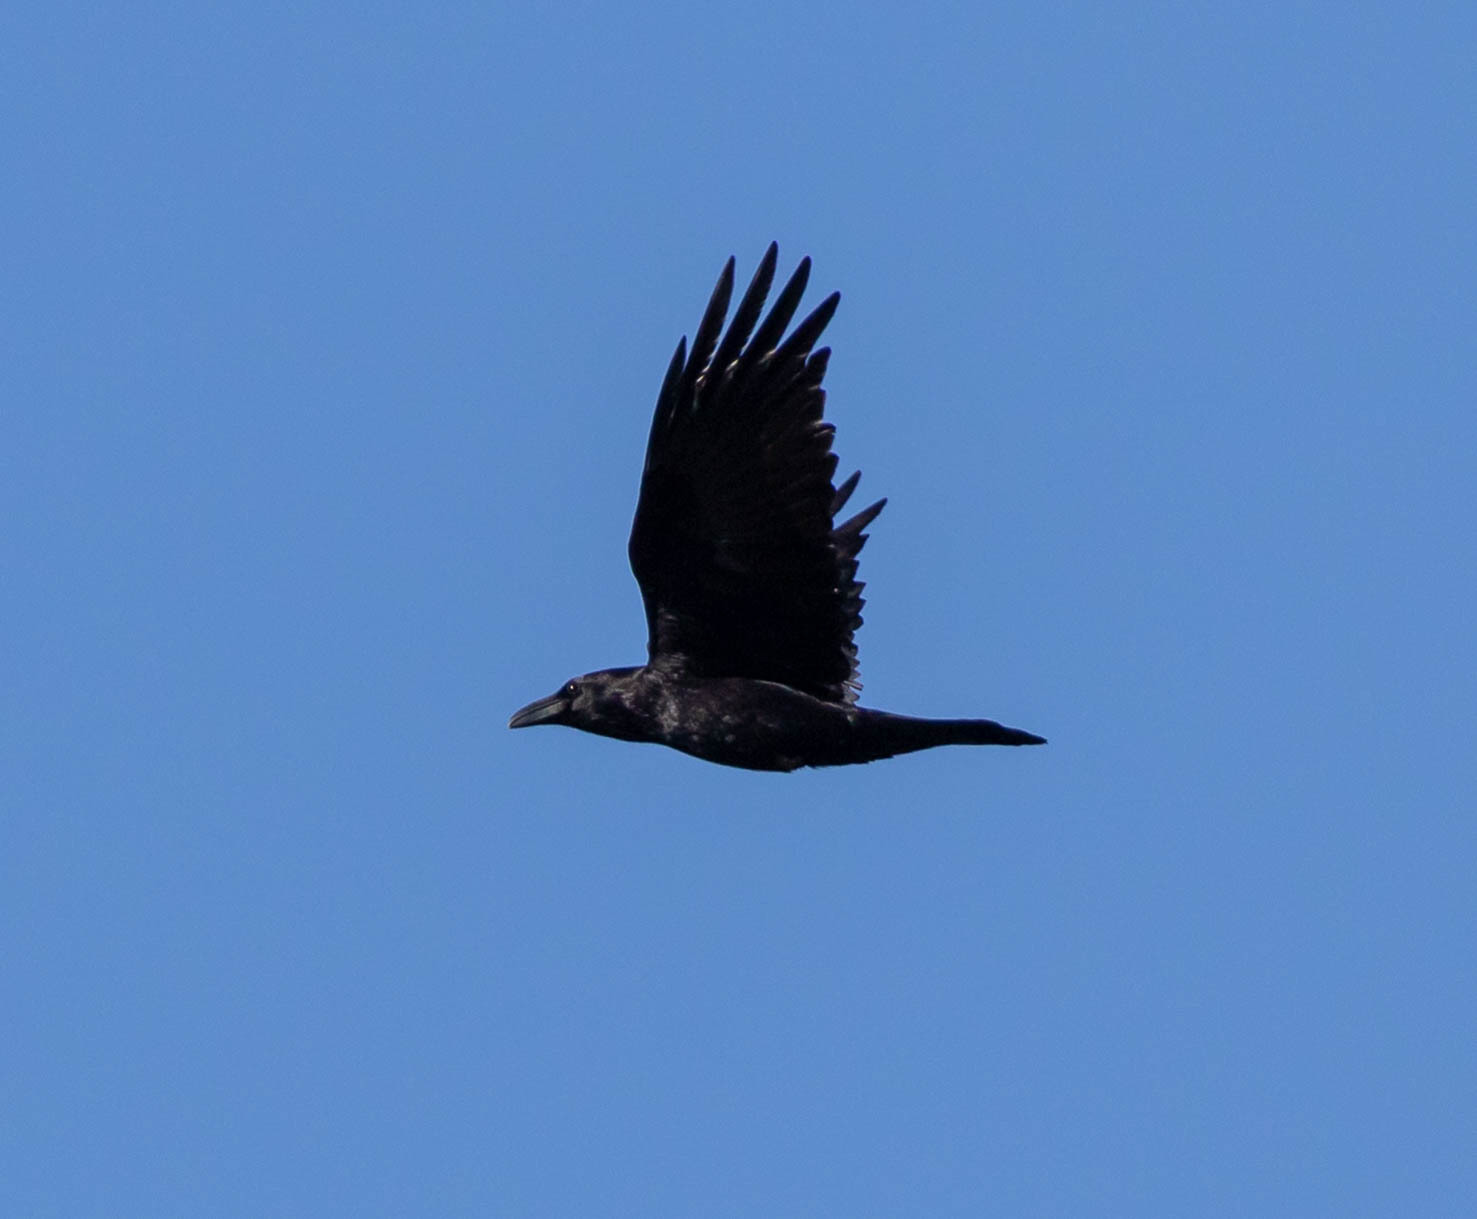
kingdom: Animalia
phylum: Chordata
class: Aves
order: Passeriformes
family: Corvidae
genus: Corvus
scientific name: Corvus corax
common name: Common raven
